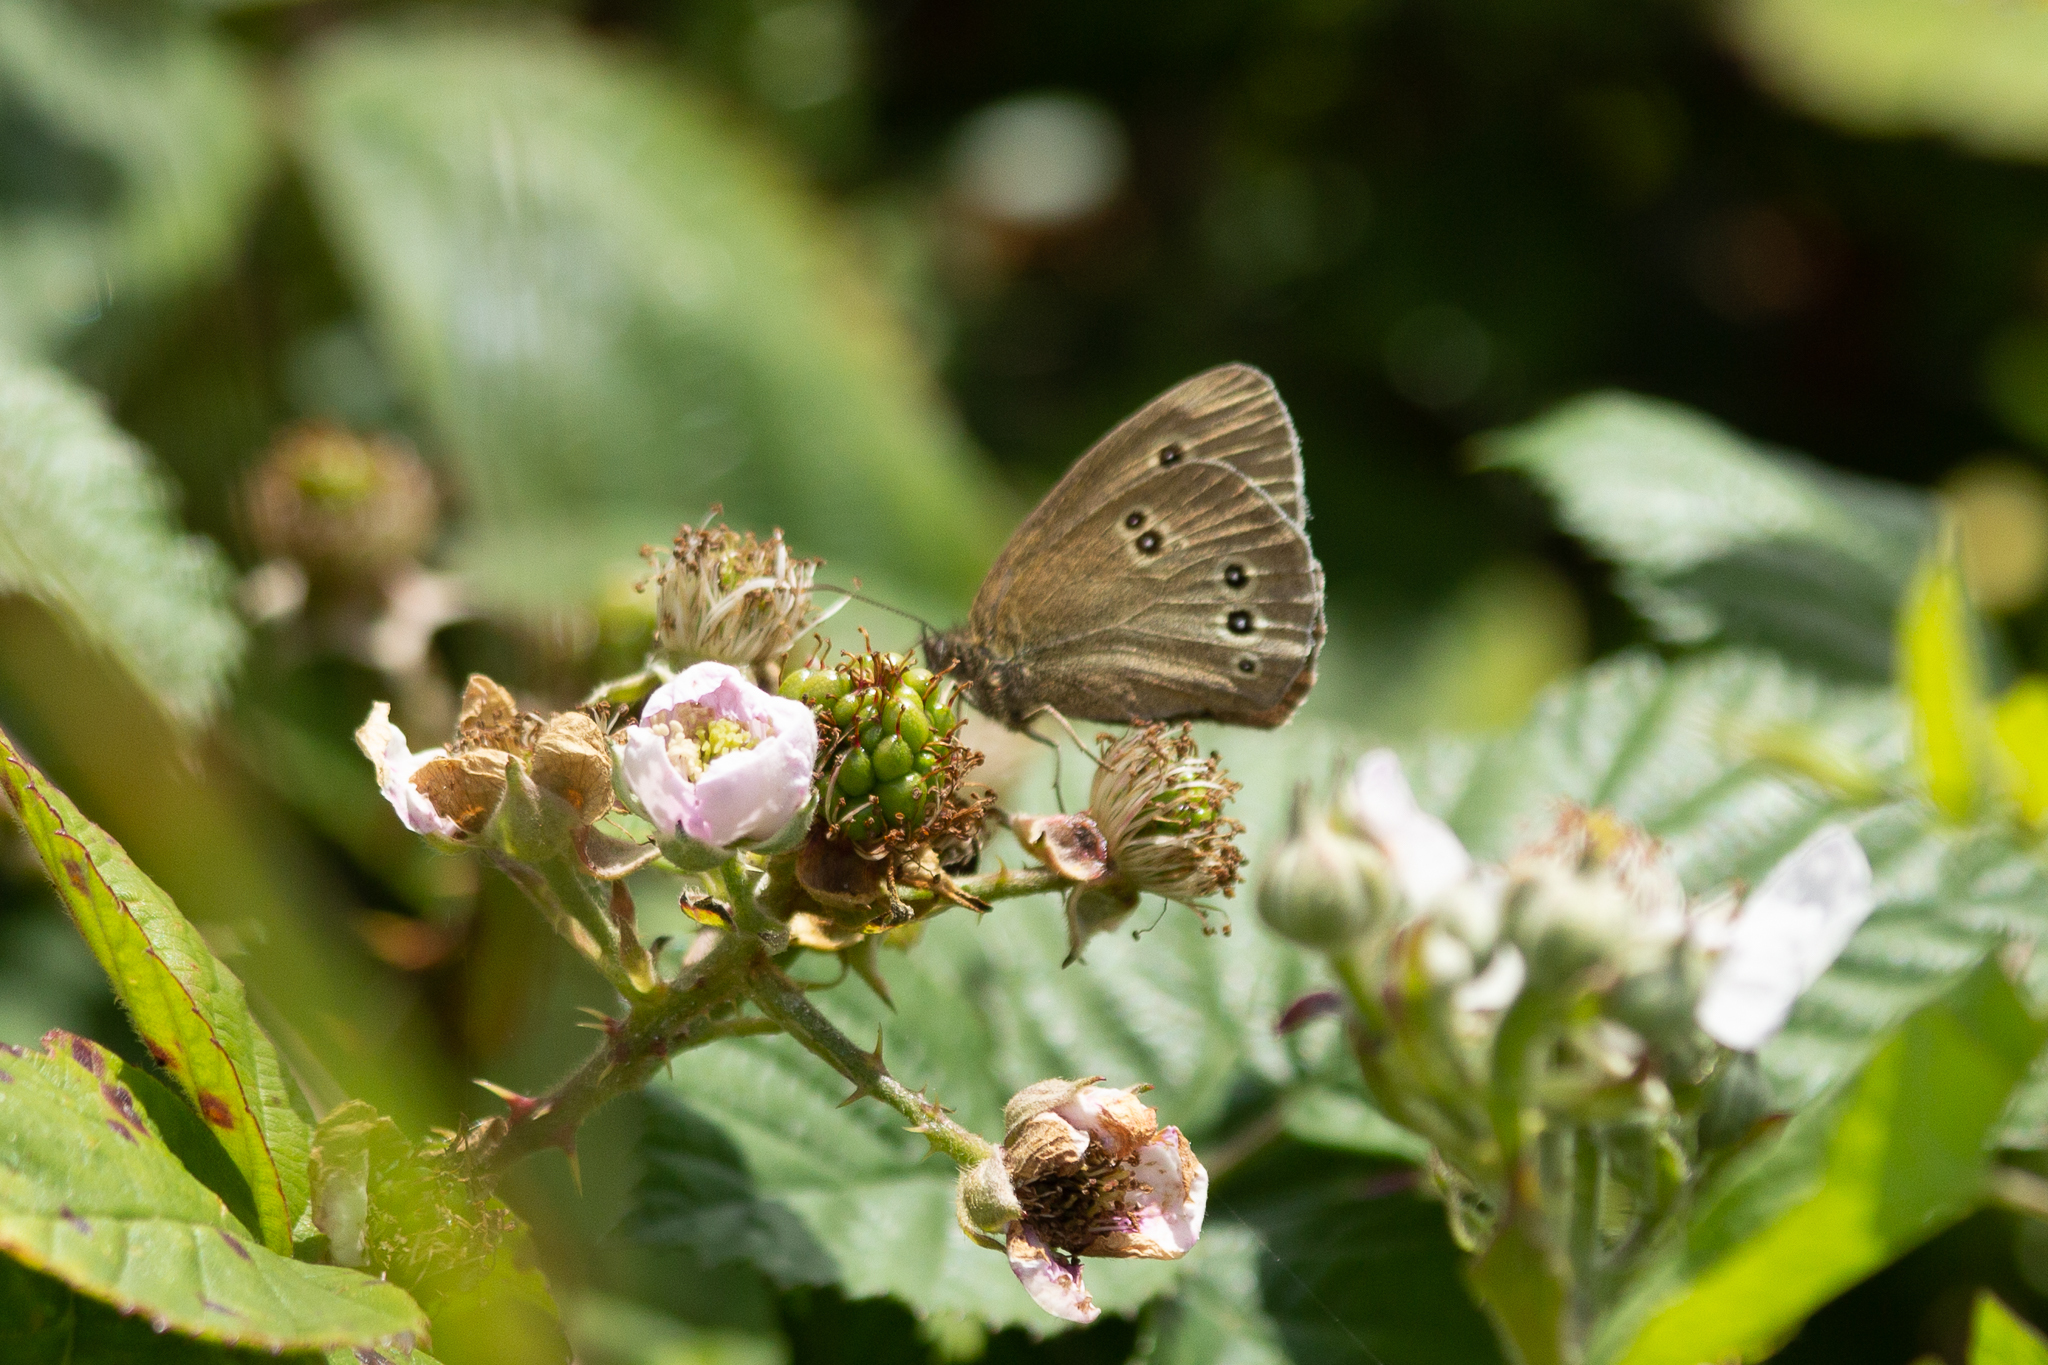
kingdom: Animalia
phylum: Arthropoda
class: Insecta
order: Lepidoptera
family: Nymphalidae
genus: Aphantopus
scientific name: Aphantopus hyperantus
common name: Ringlet
